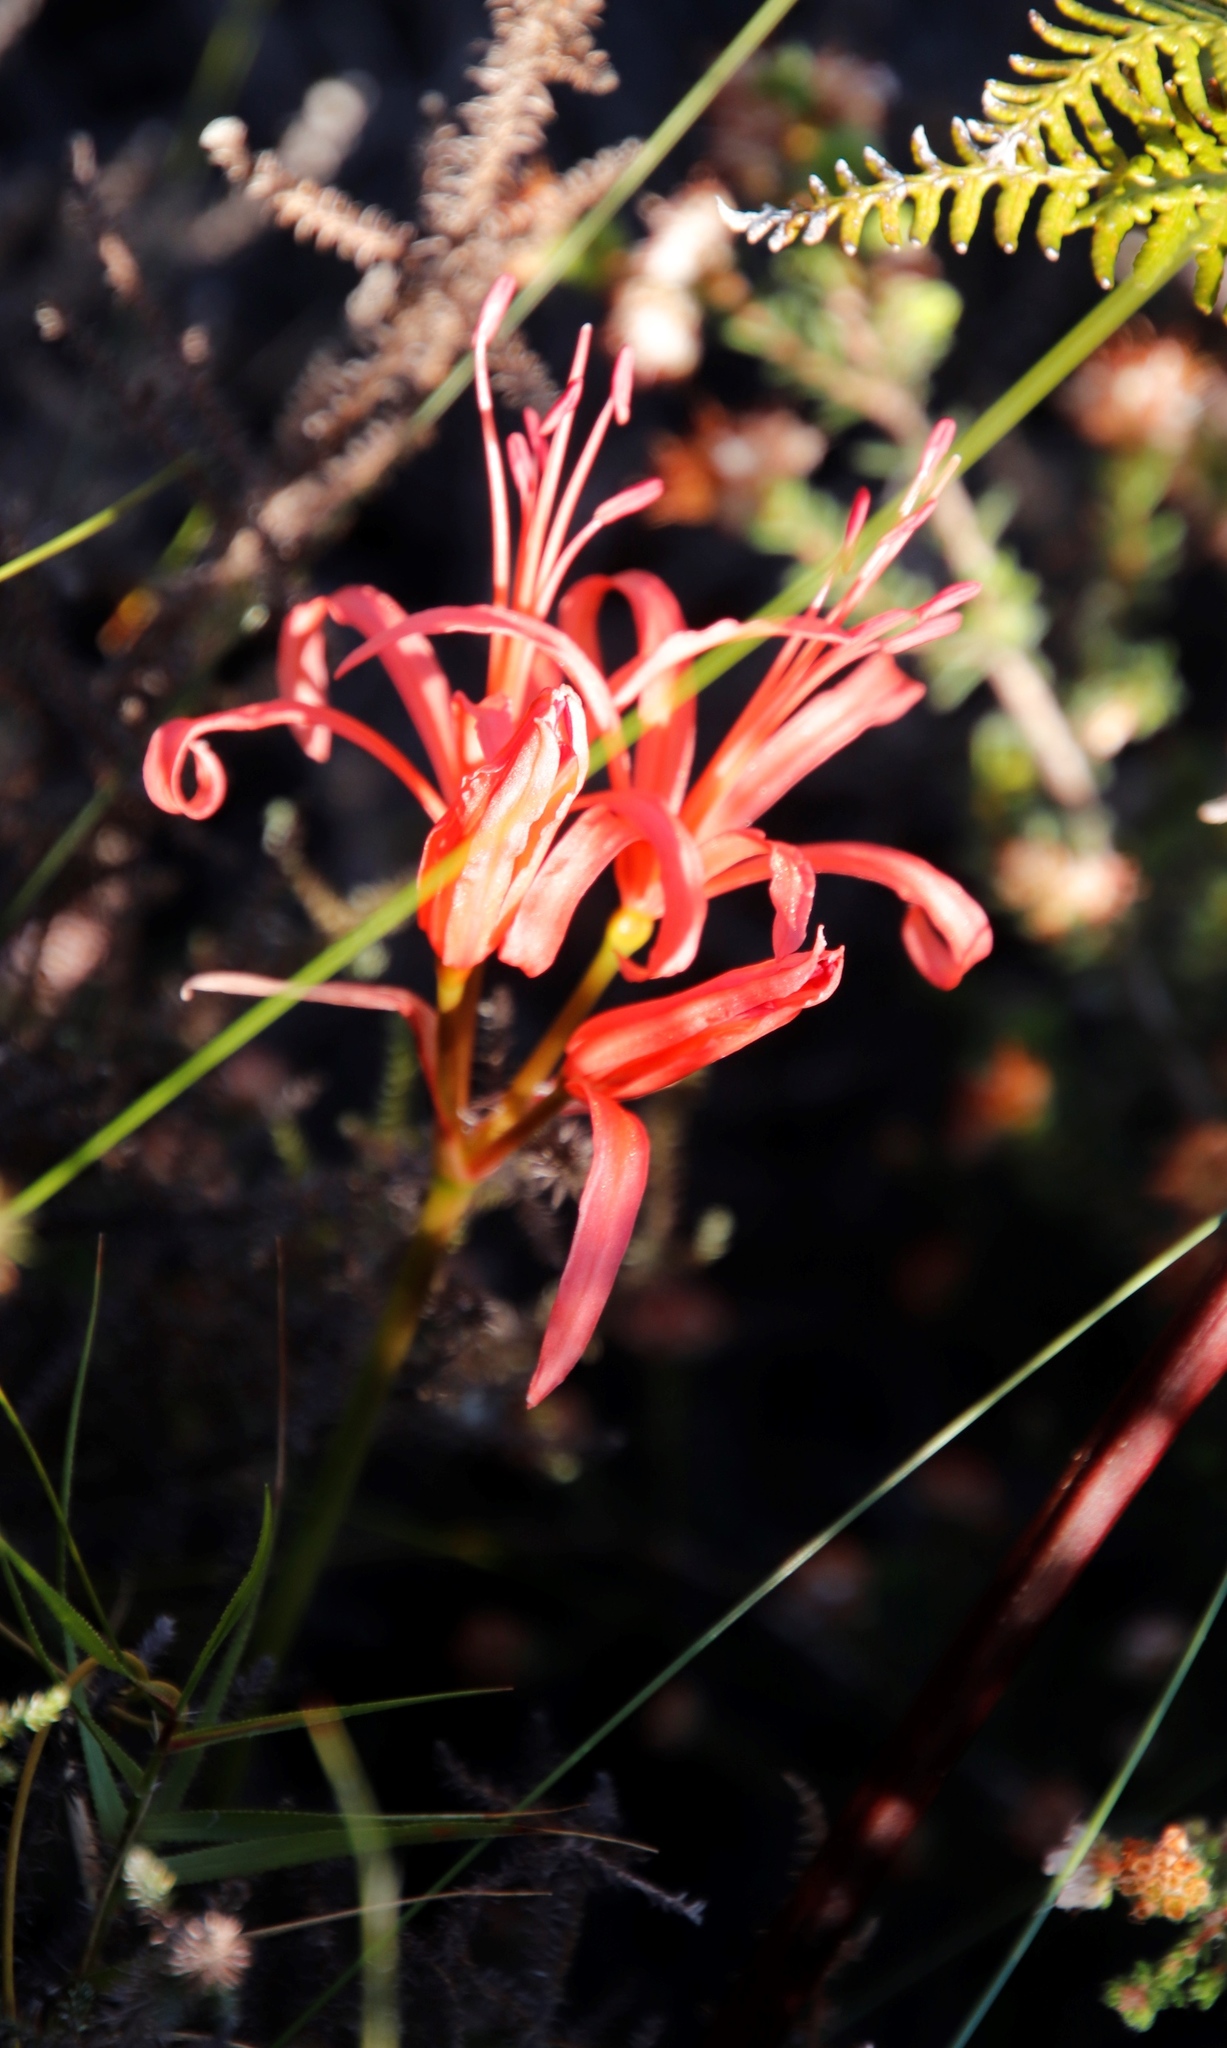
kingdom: Plantae
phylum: Tracheophyta
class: Liliopsida
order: Asparagales
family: Amaryllidaceae
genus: Nerine
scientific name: Nerine sarniensis
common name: Guernsey-lily
